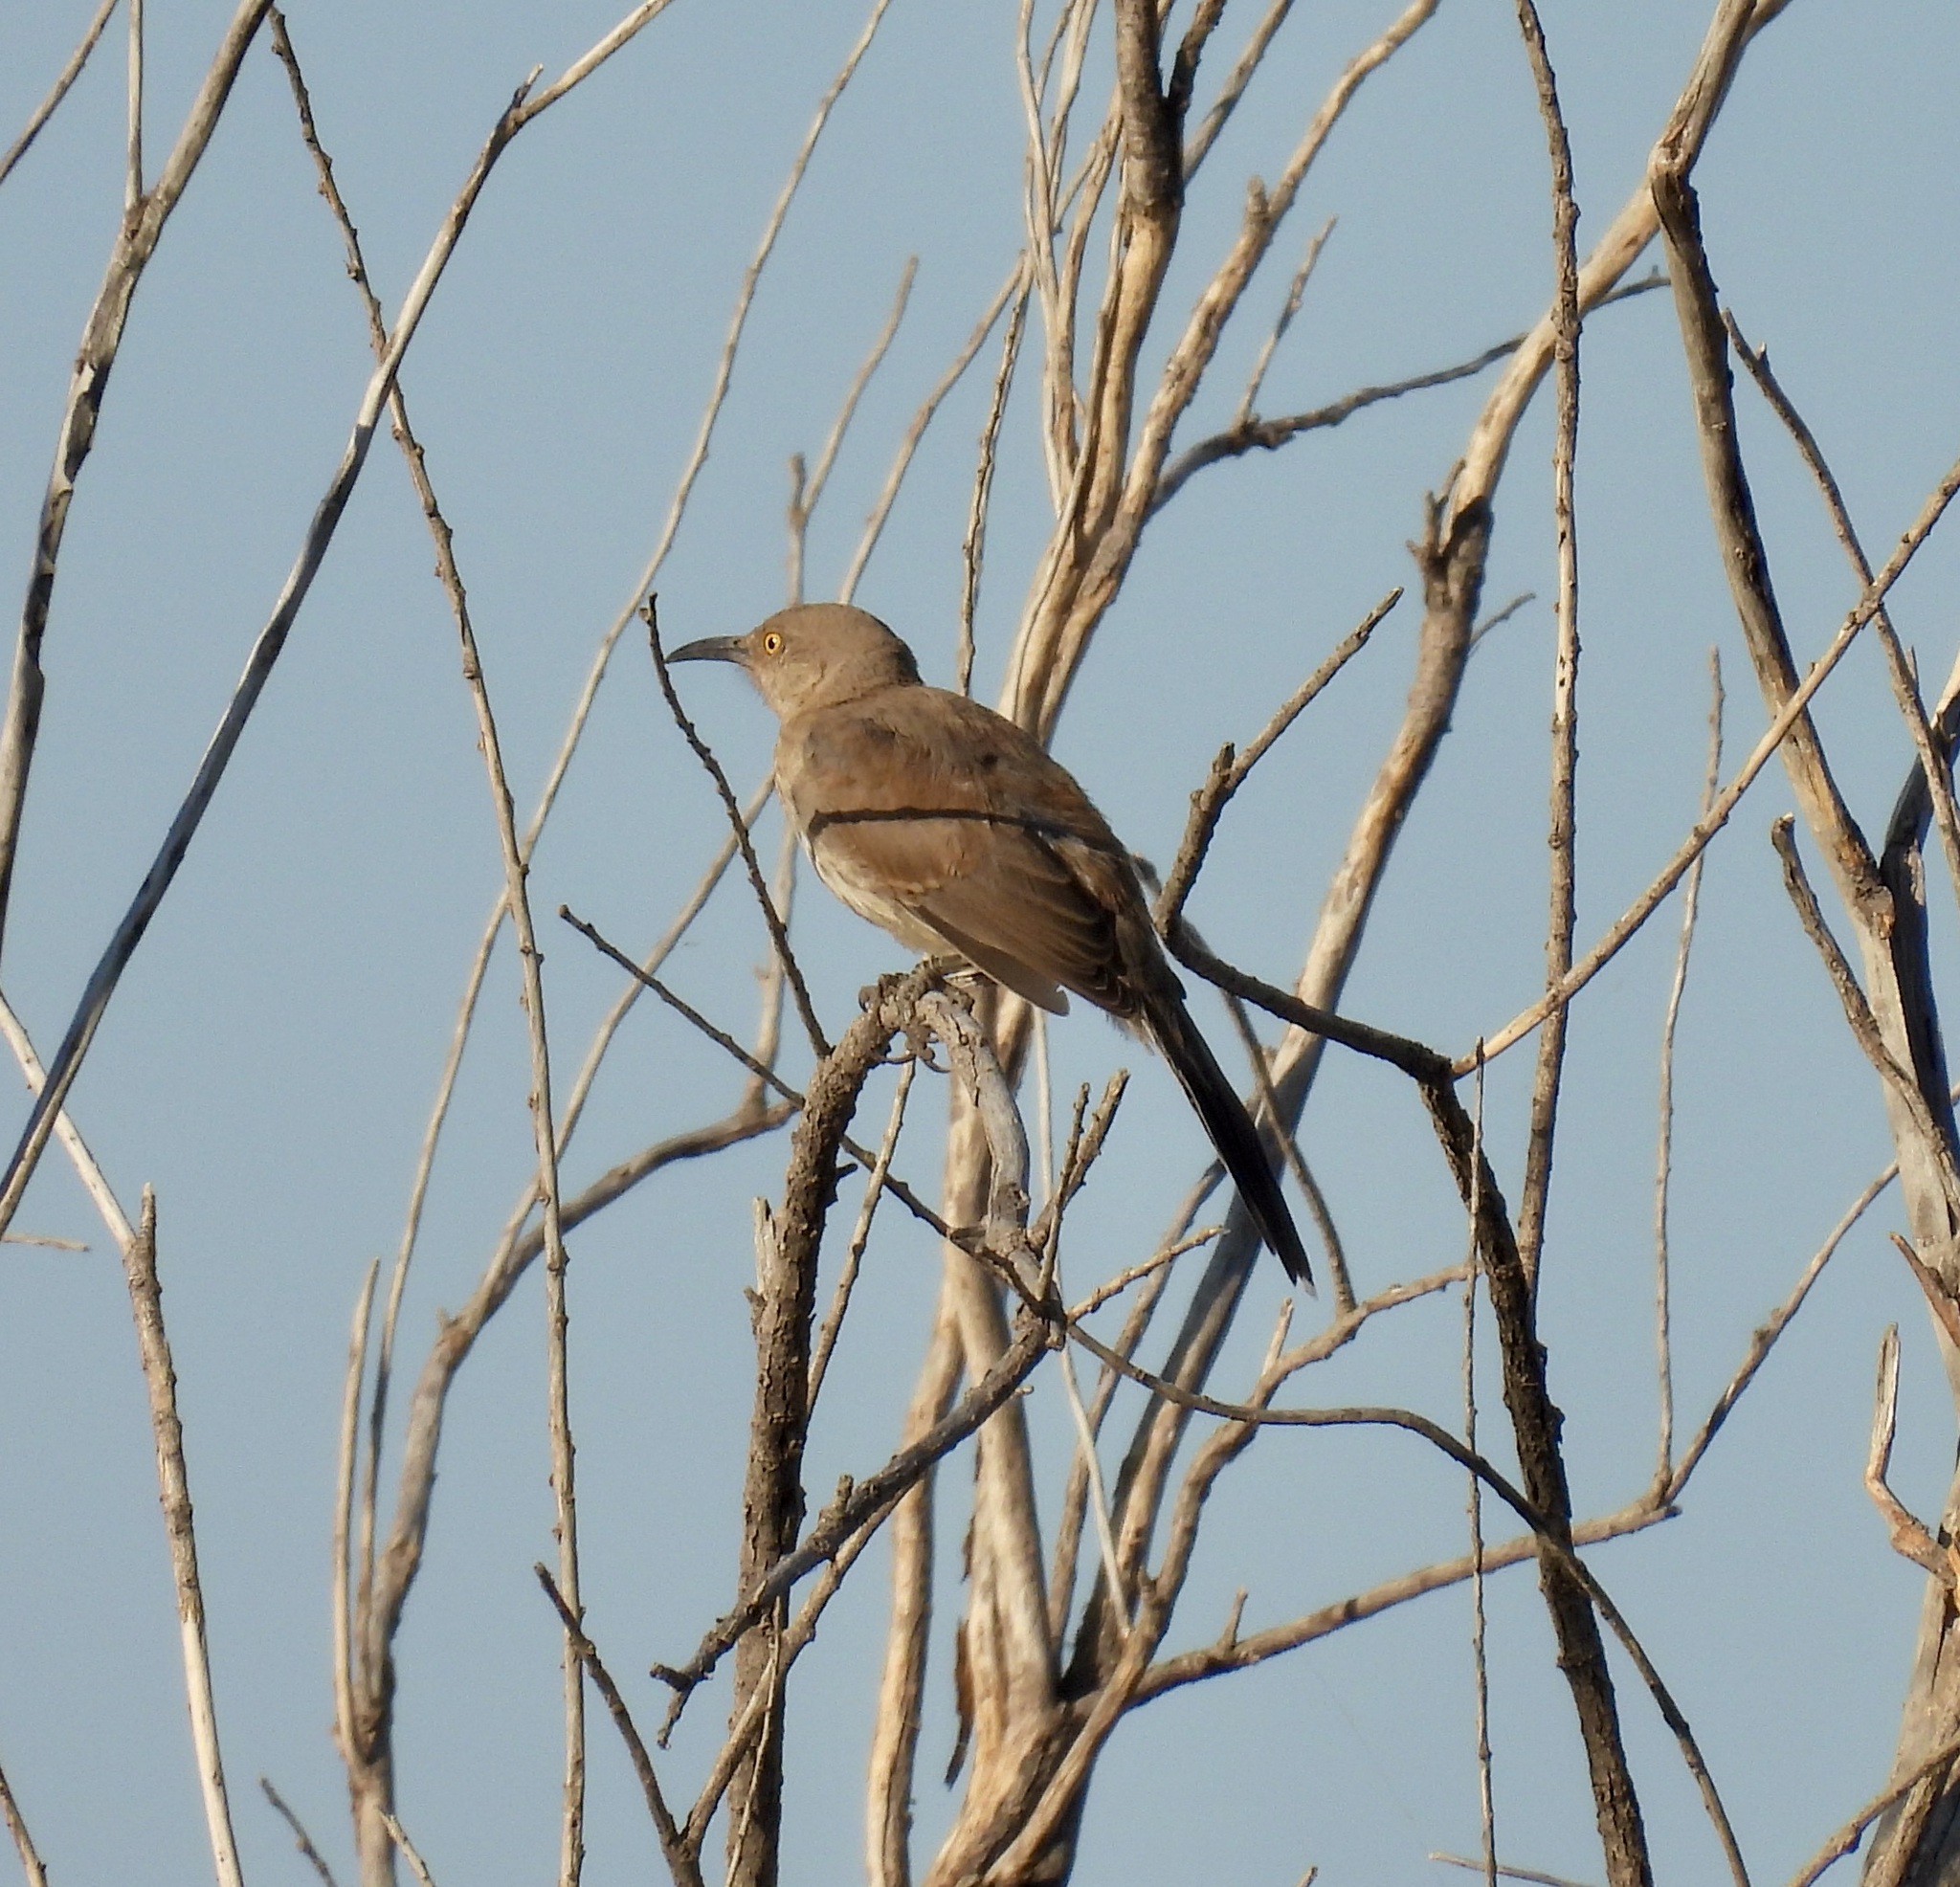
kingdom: Animalia
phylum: Chordata
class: Aves
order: Passeriformes
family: Mimidae
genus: Toxostoma
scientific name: Toxostoma curvirostre
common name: Curve-billed thrasher
